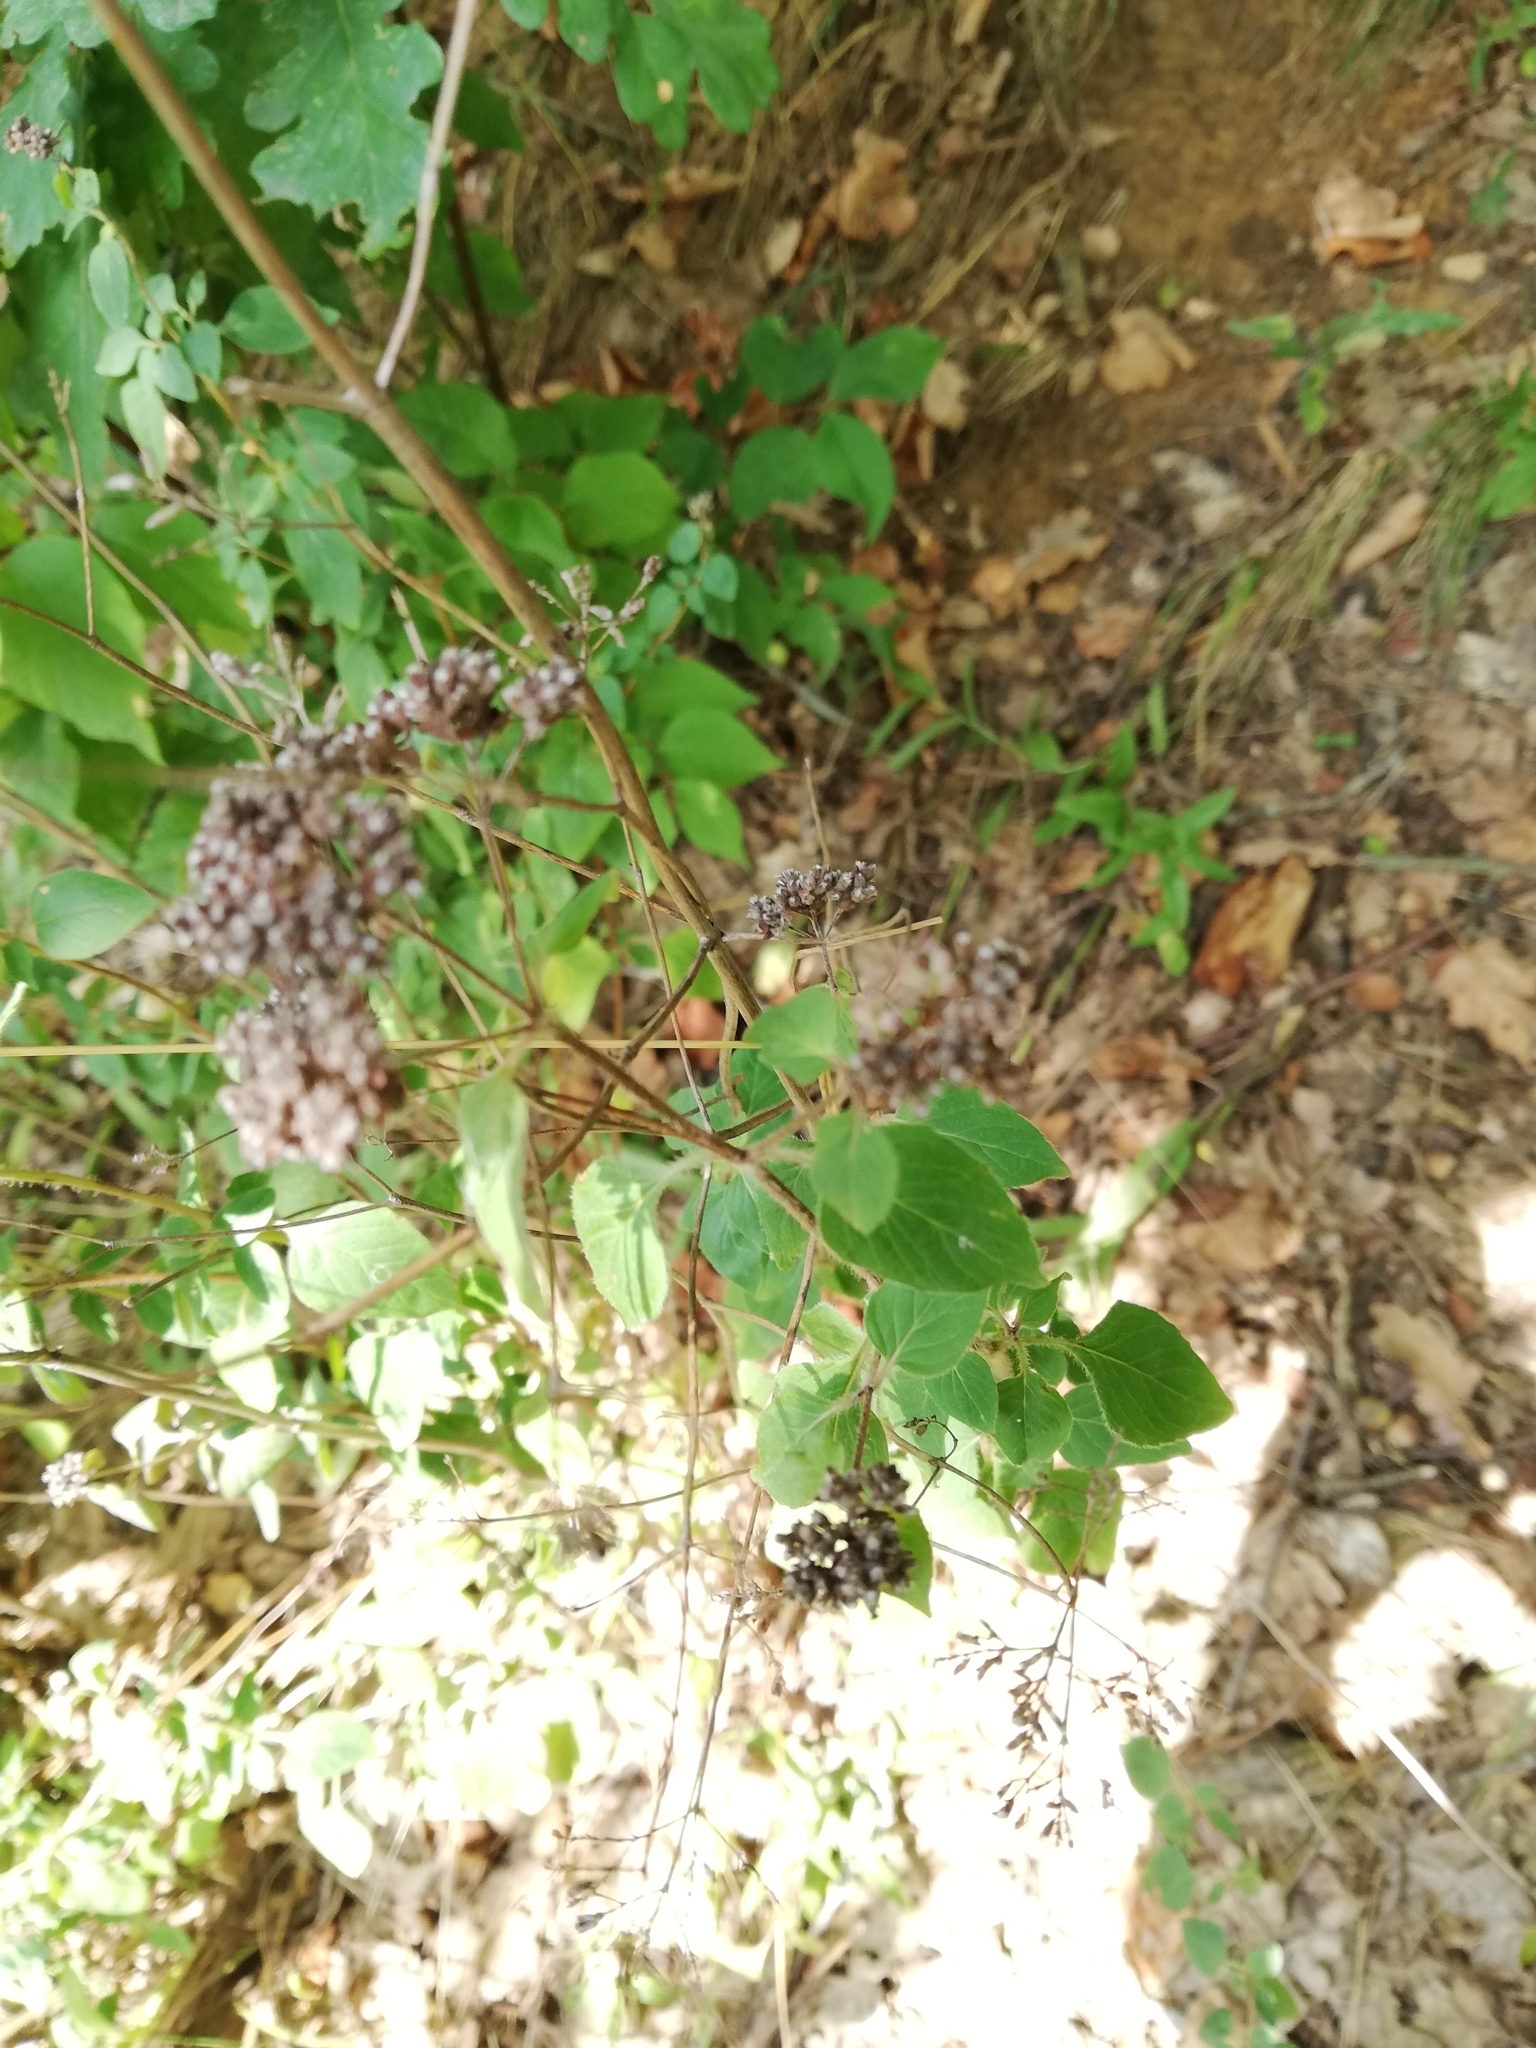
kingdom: Plantae
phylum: Tracheophyta
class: Magnoliopsida
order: Lamiales
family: Lamiaceae
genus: Origanum
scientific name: Origanum vulgare
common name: Wild marjoram
